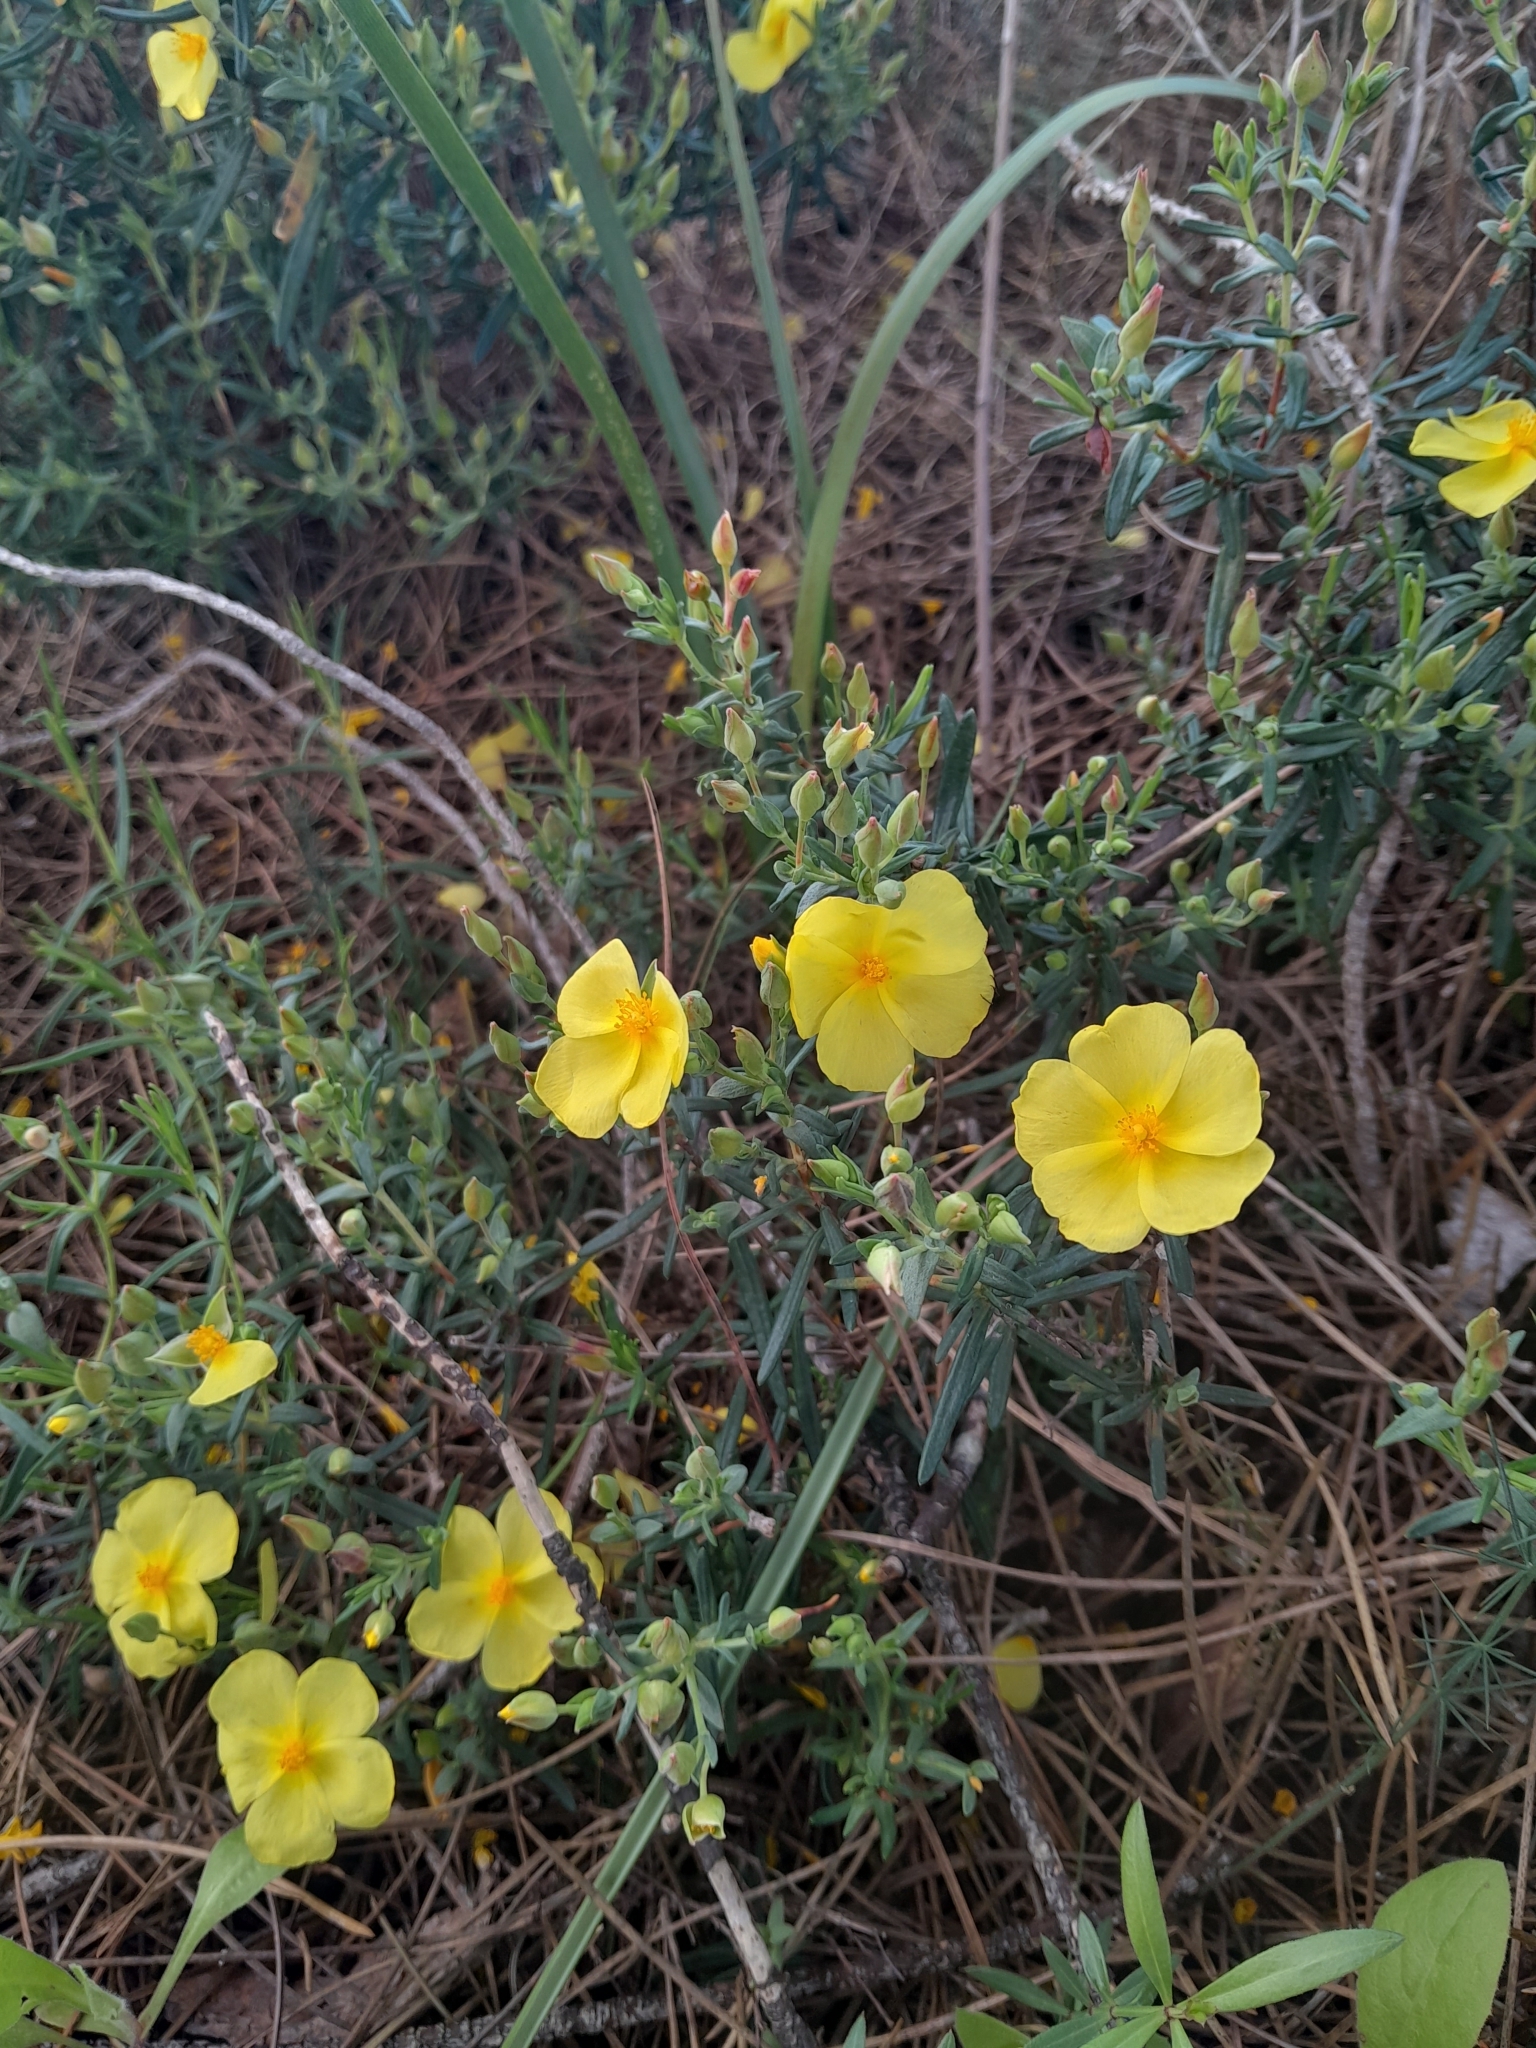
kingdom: Plantae
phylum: Tracheophyta
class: Magnoliopsida
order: Malvales
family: Cistaceae
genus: Halimium
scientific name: Halimium calycinum
